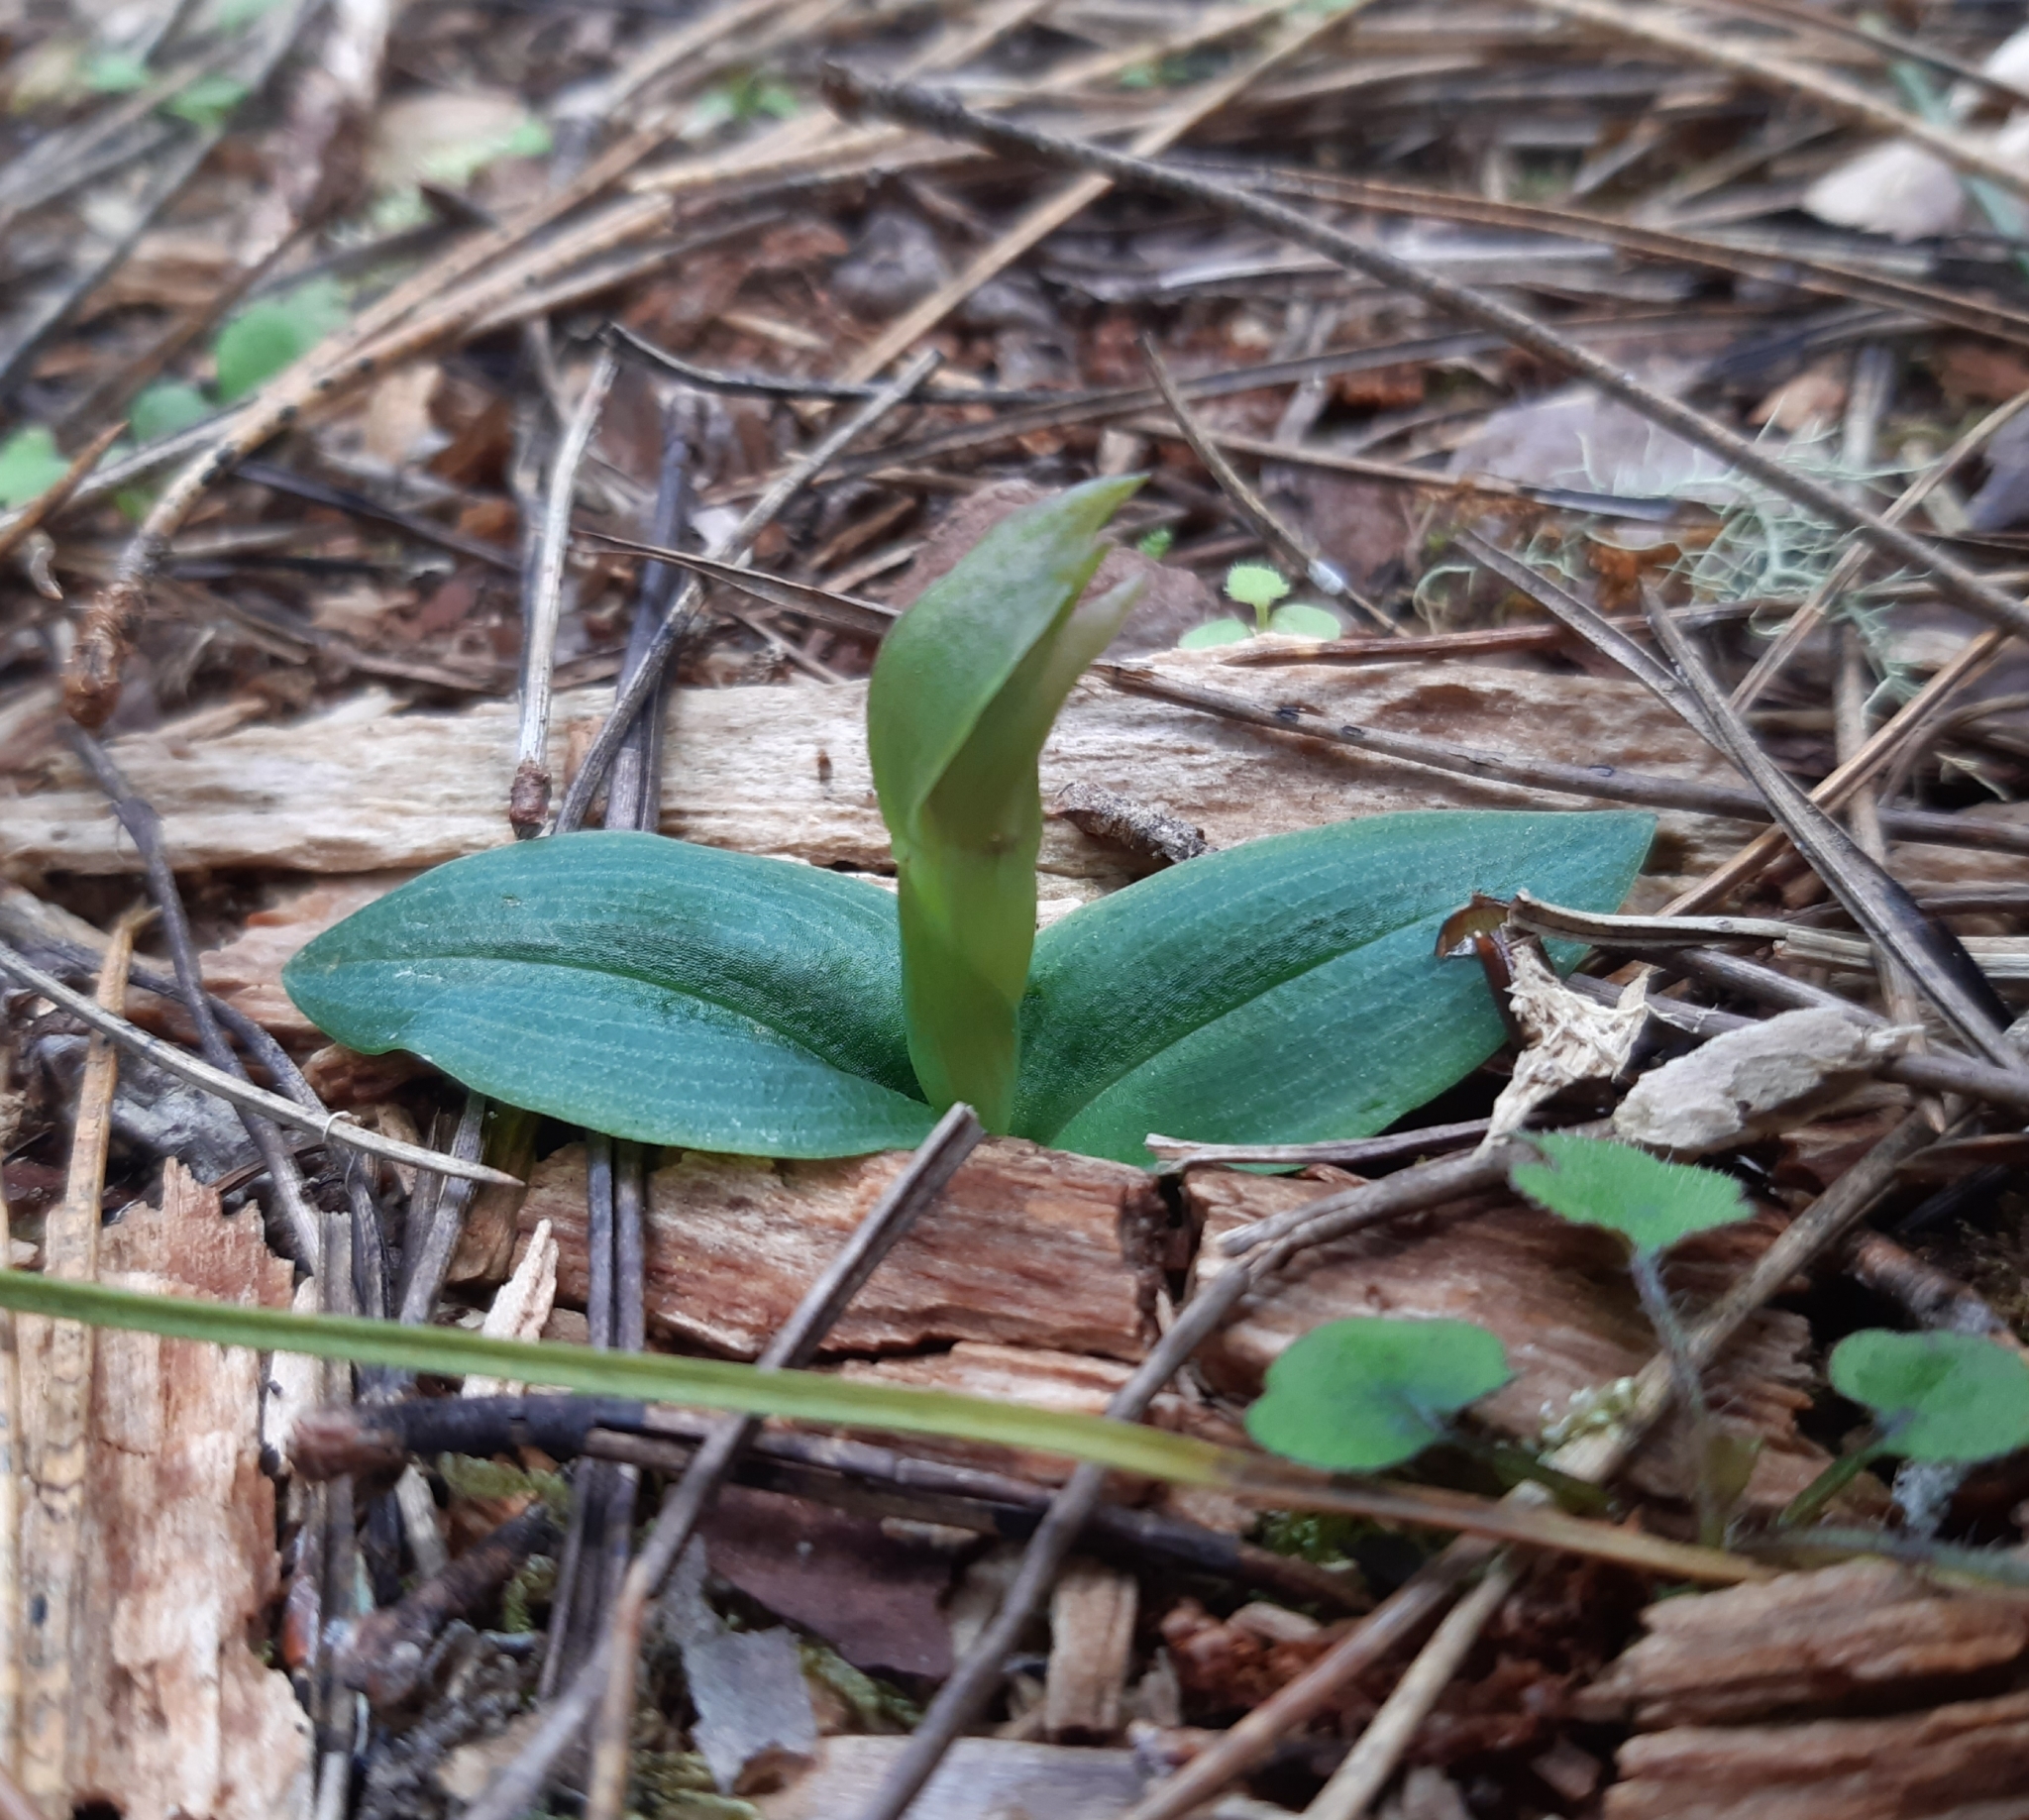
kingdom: Plantae
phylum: Tracheophyta
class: Liliopsida
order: Asparagales
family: Orchidaceae
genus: Chiloglottis
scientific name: Chiloglottis cornuta
